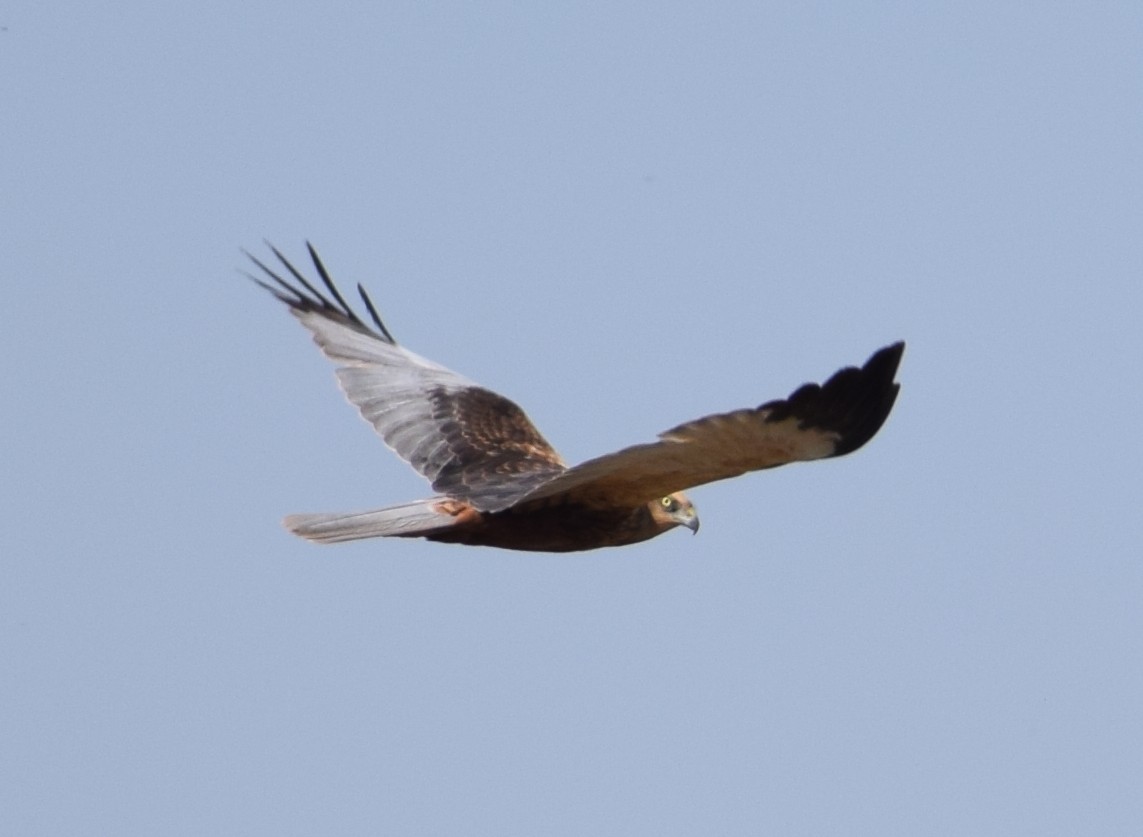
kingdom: Animalia
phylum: Chordata
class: Aves
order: Accipitriformes
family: Accipitridae
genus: Circus
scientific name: Circus aeruginosus
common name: Western marsh harrier
